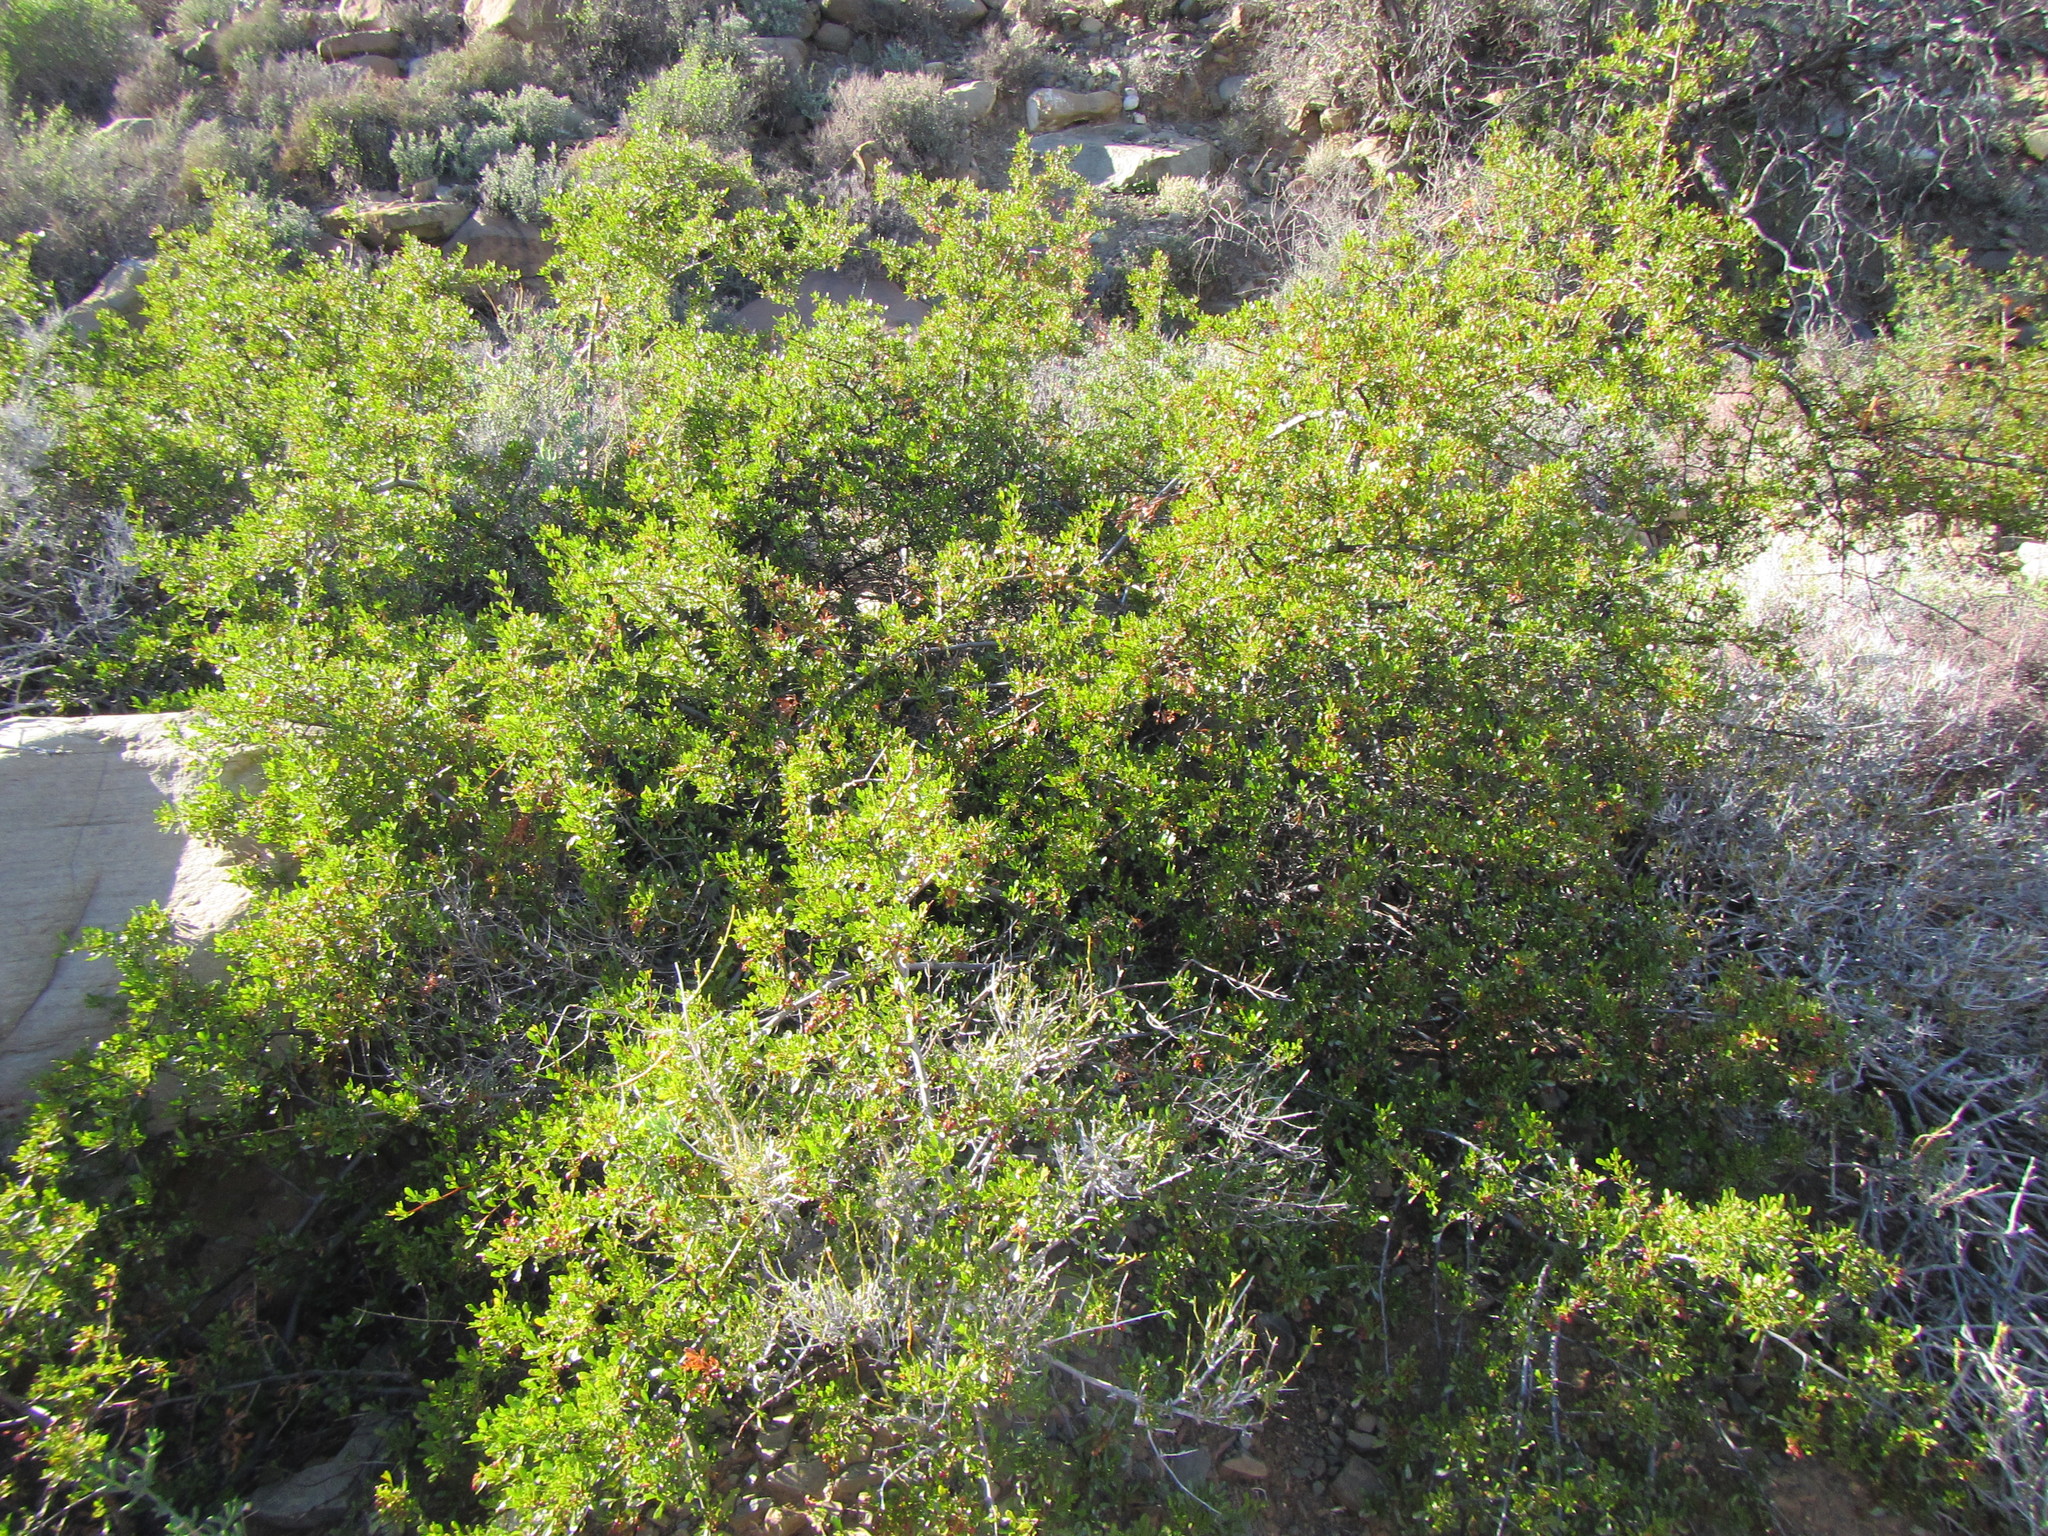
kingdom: Plantae
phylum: Tracheophyta
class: Magnoliopsida
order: Sapindales
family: Anacardiaceae
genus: Searsia
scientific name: Searsia undulata
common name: Namaqua kunibush
